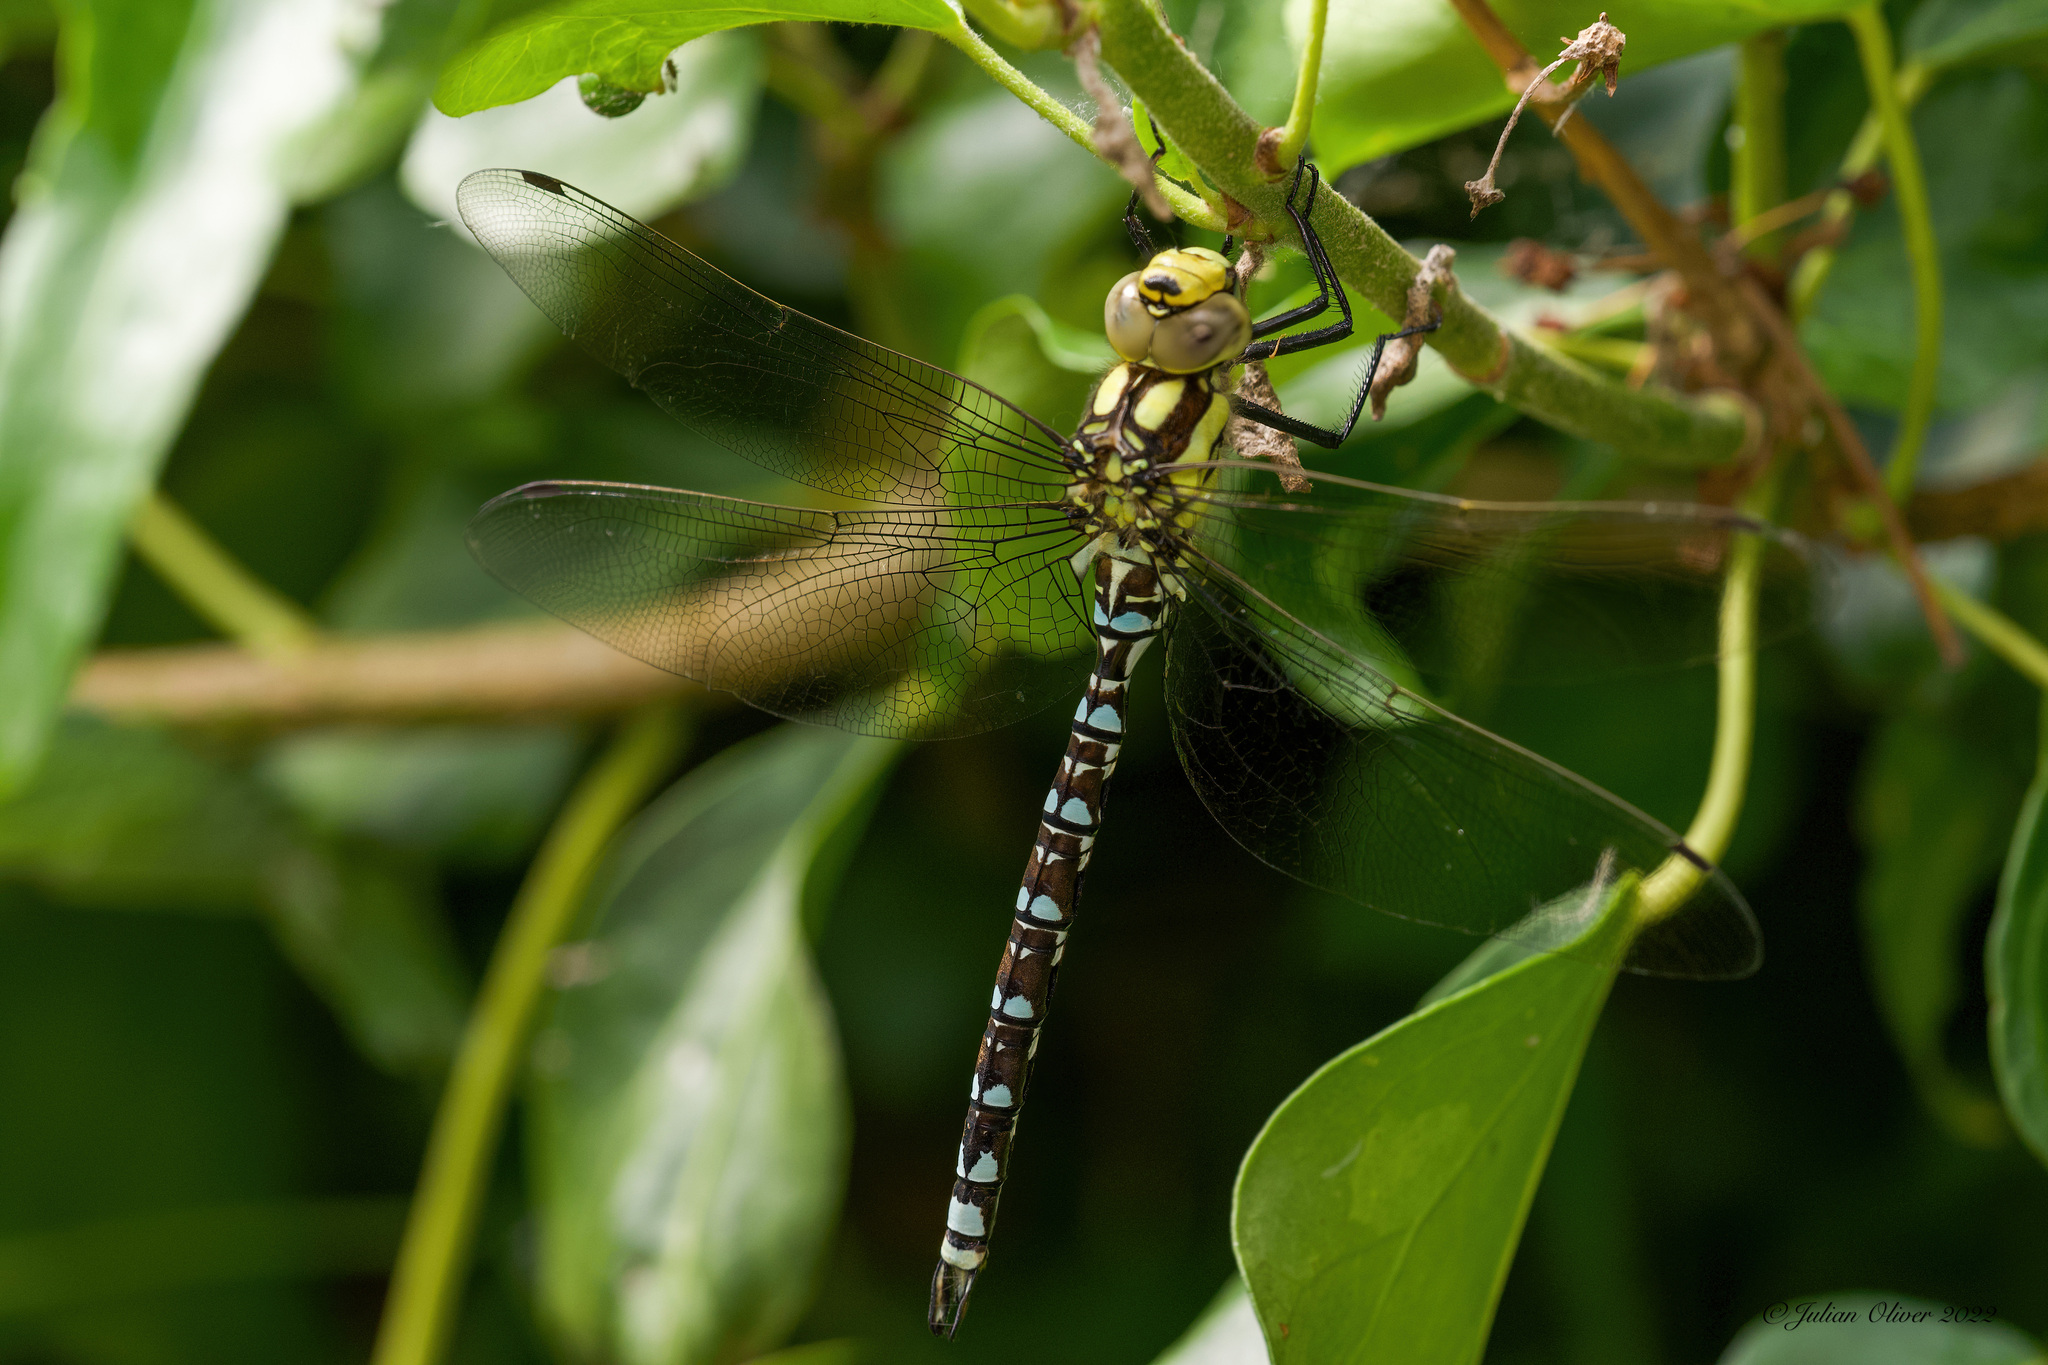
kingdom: Animalia
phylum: Arthropoda
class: Insecta
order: Odonata
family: Aeshnidae
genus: Aeshna
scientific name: Aeshna cyanea
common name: Southern hawker
